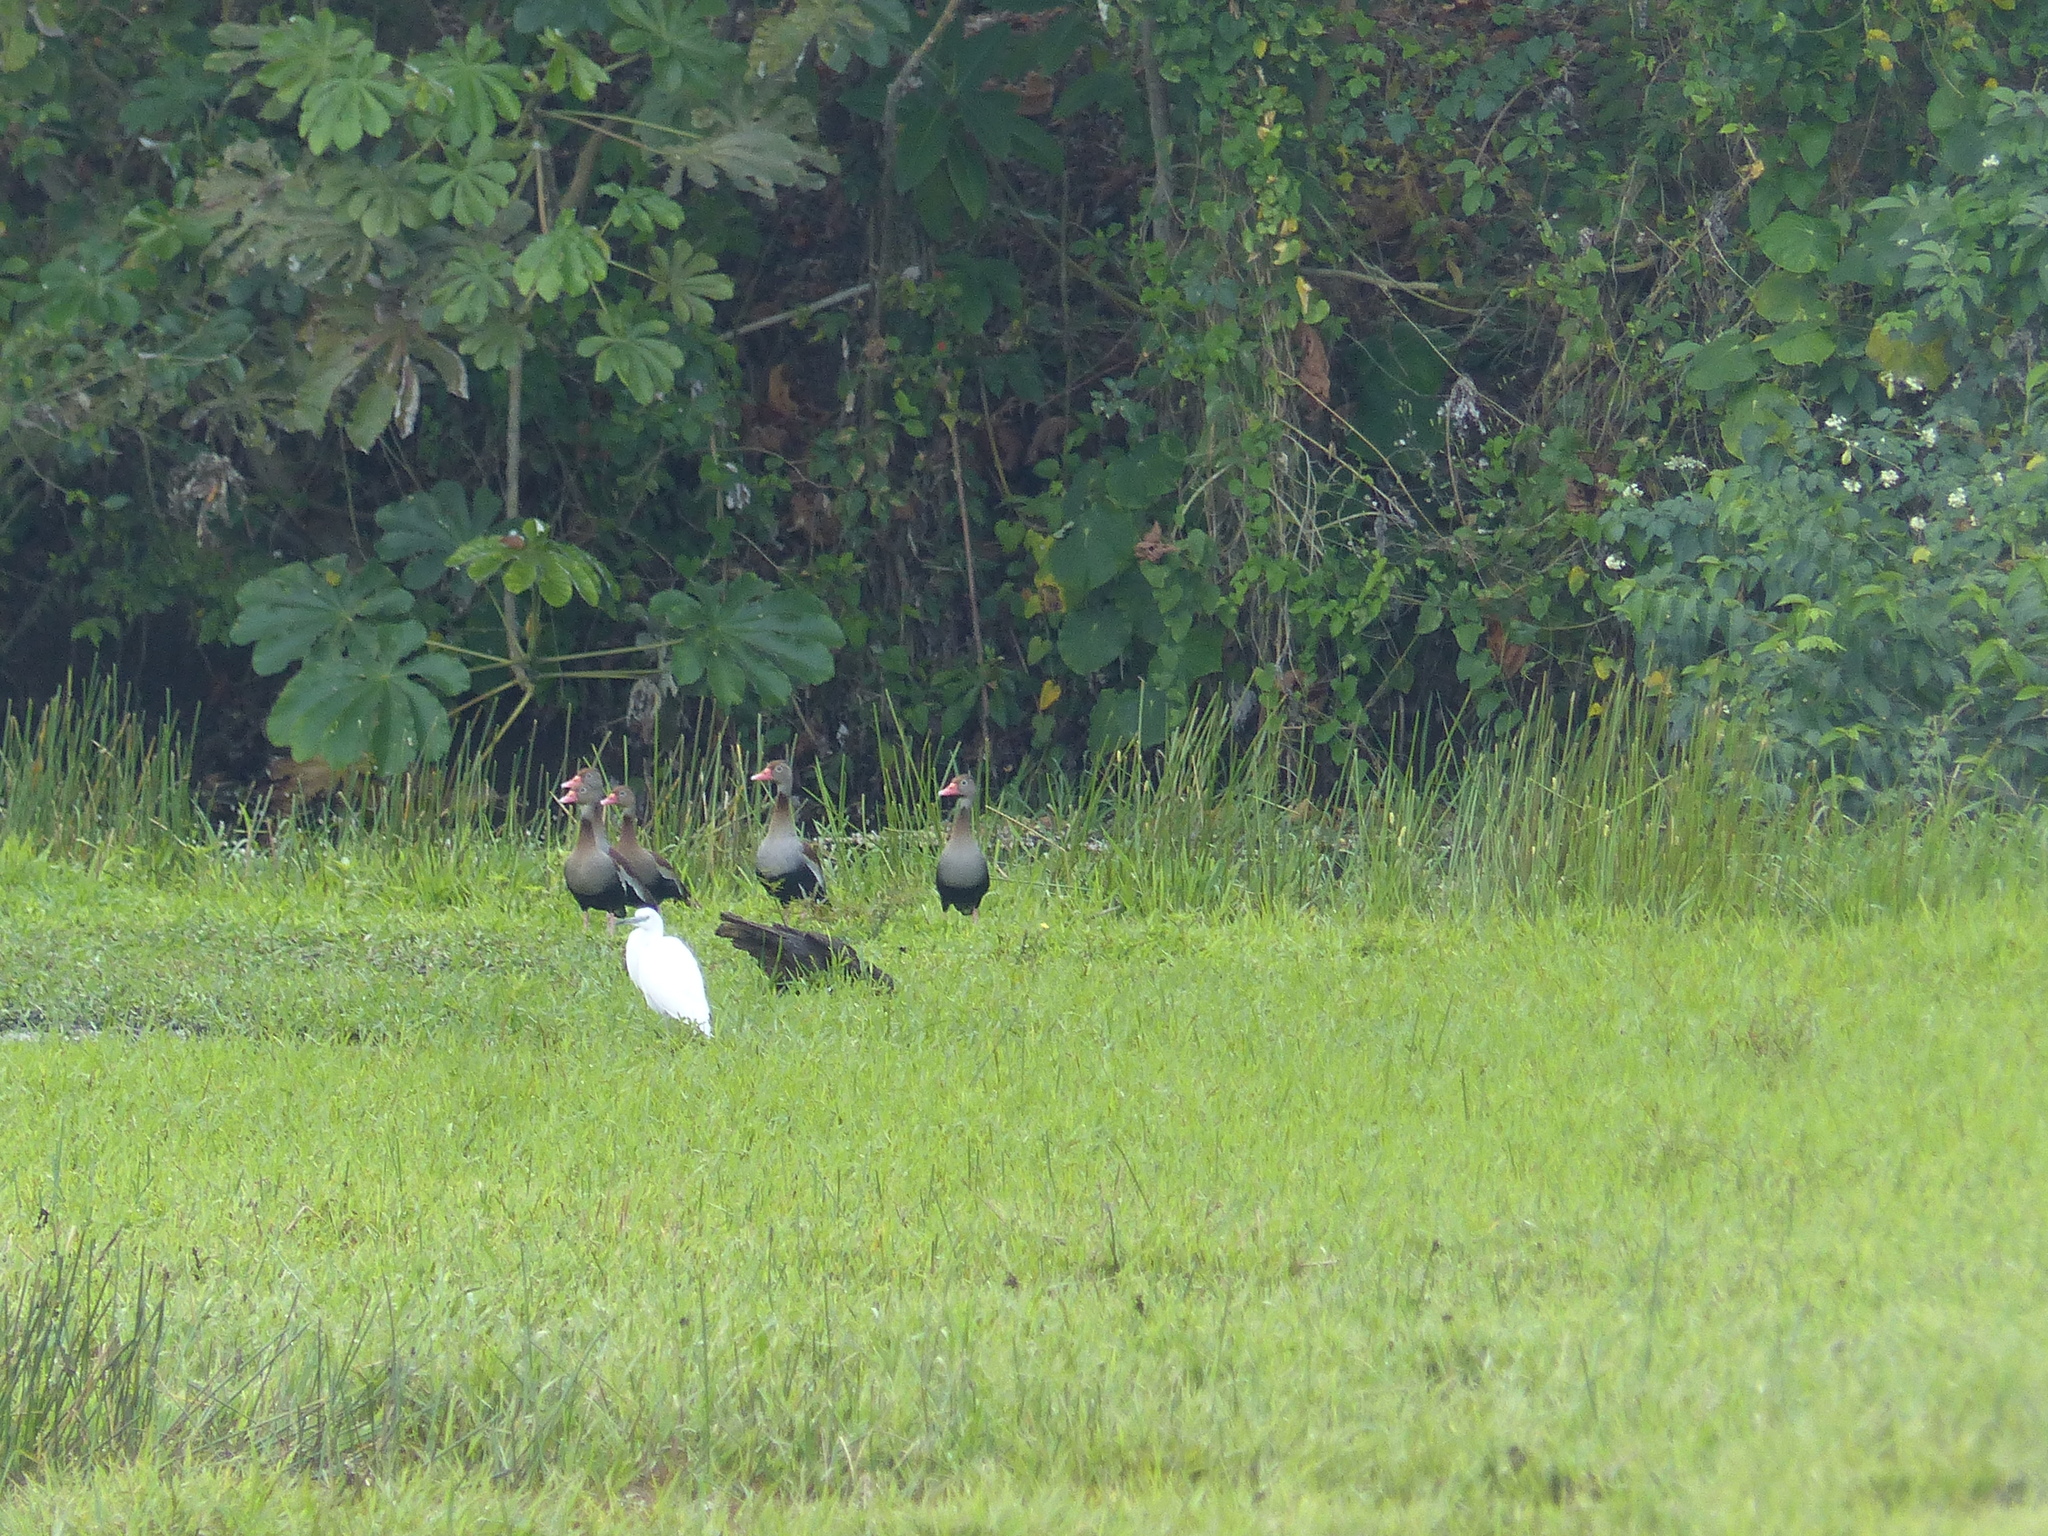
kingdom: Animalia
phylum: Chordata
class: Aves
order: Anseriformes
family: Anatidae
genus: Dendrocygna
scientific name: Dendrocygna autumnalis
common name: Black-bellied whistling duck
